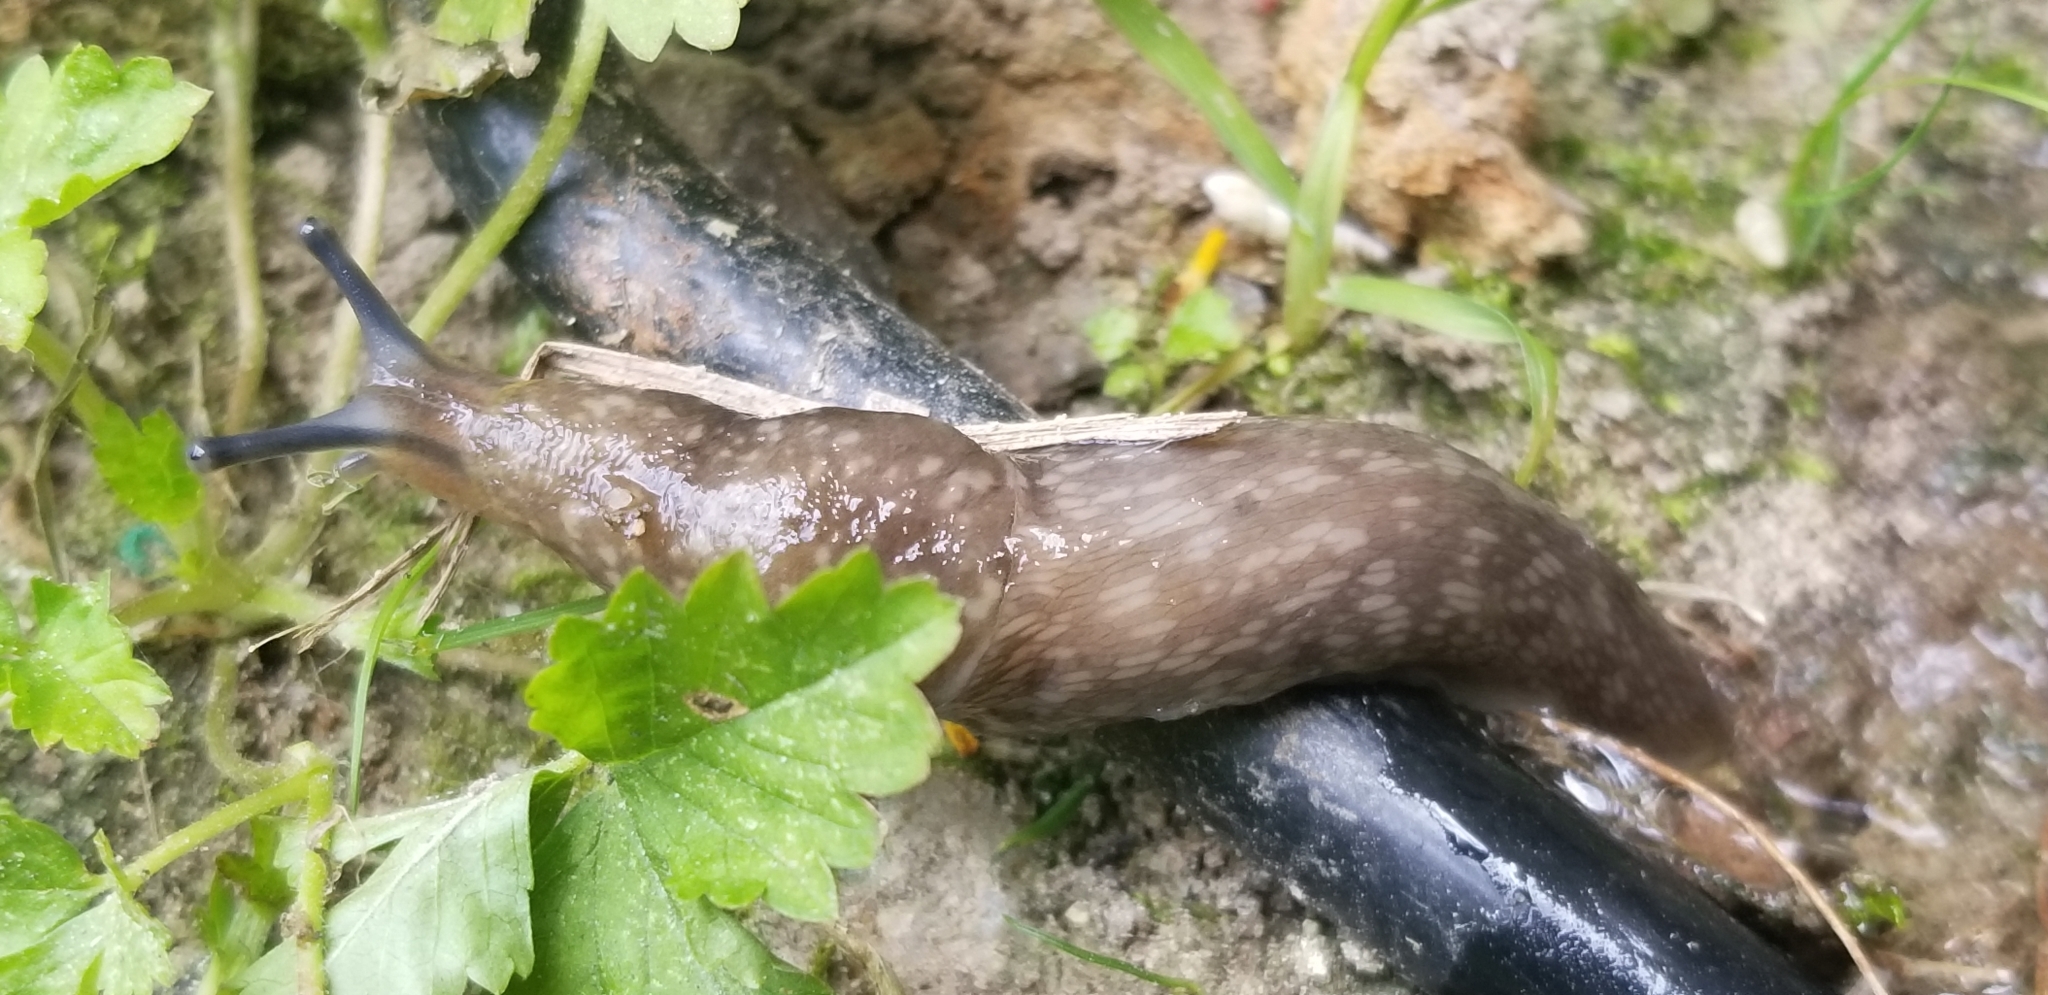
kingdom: Animalia
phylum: Mollusca
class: Gastropoda
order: Stylommatophora
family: Limacidae
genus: Limacus
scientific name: Limacus flavus
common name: Yellow gardenslug
